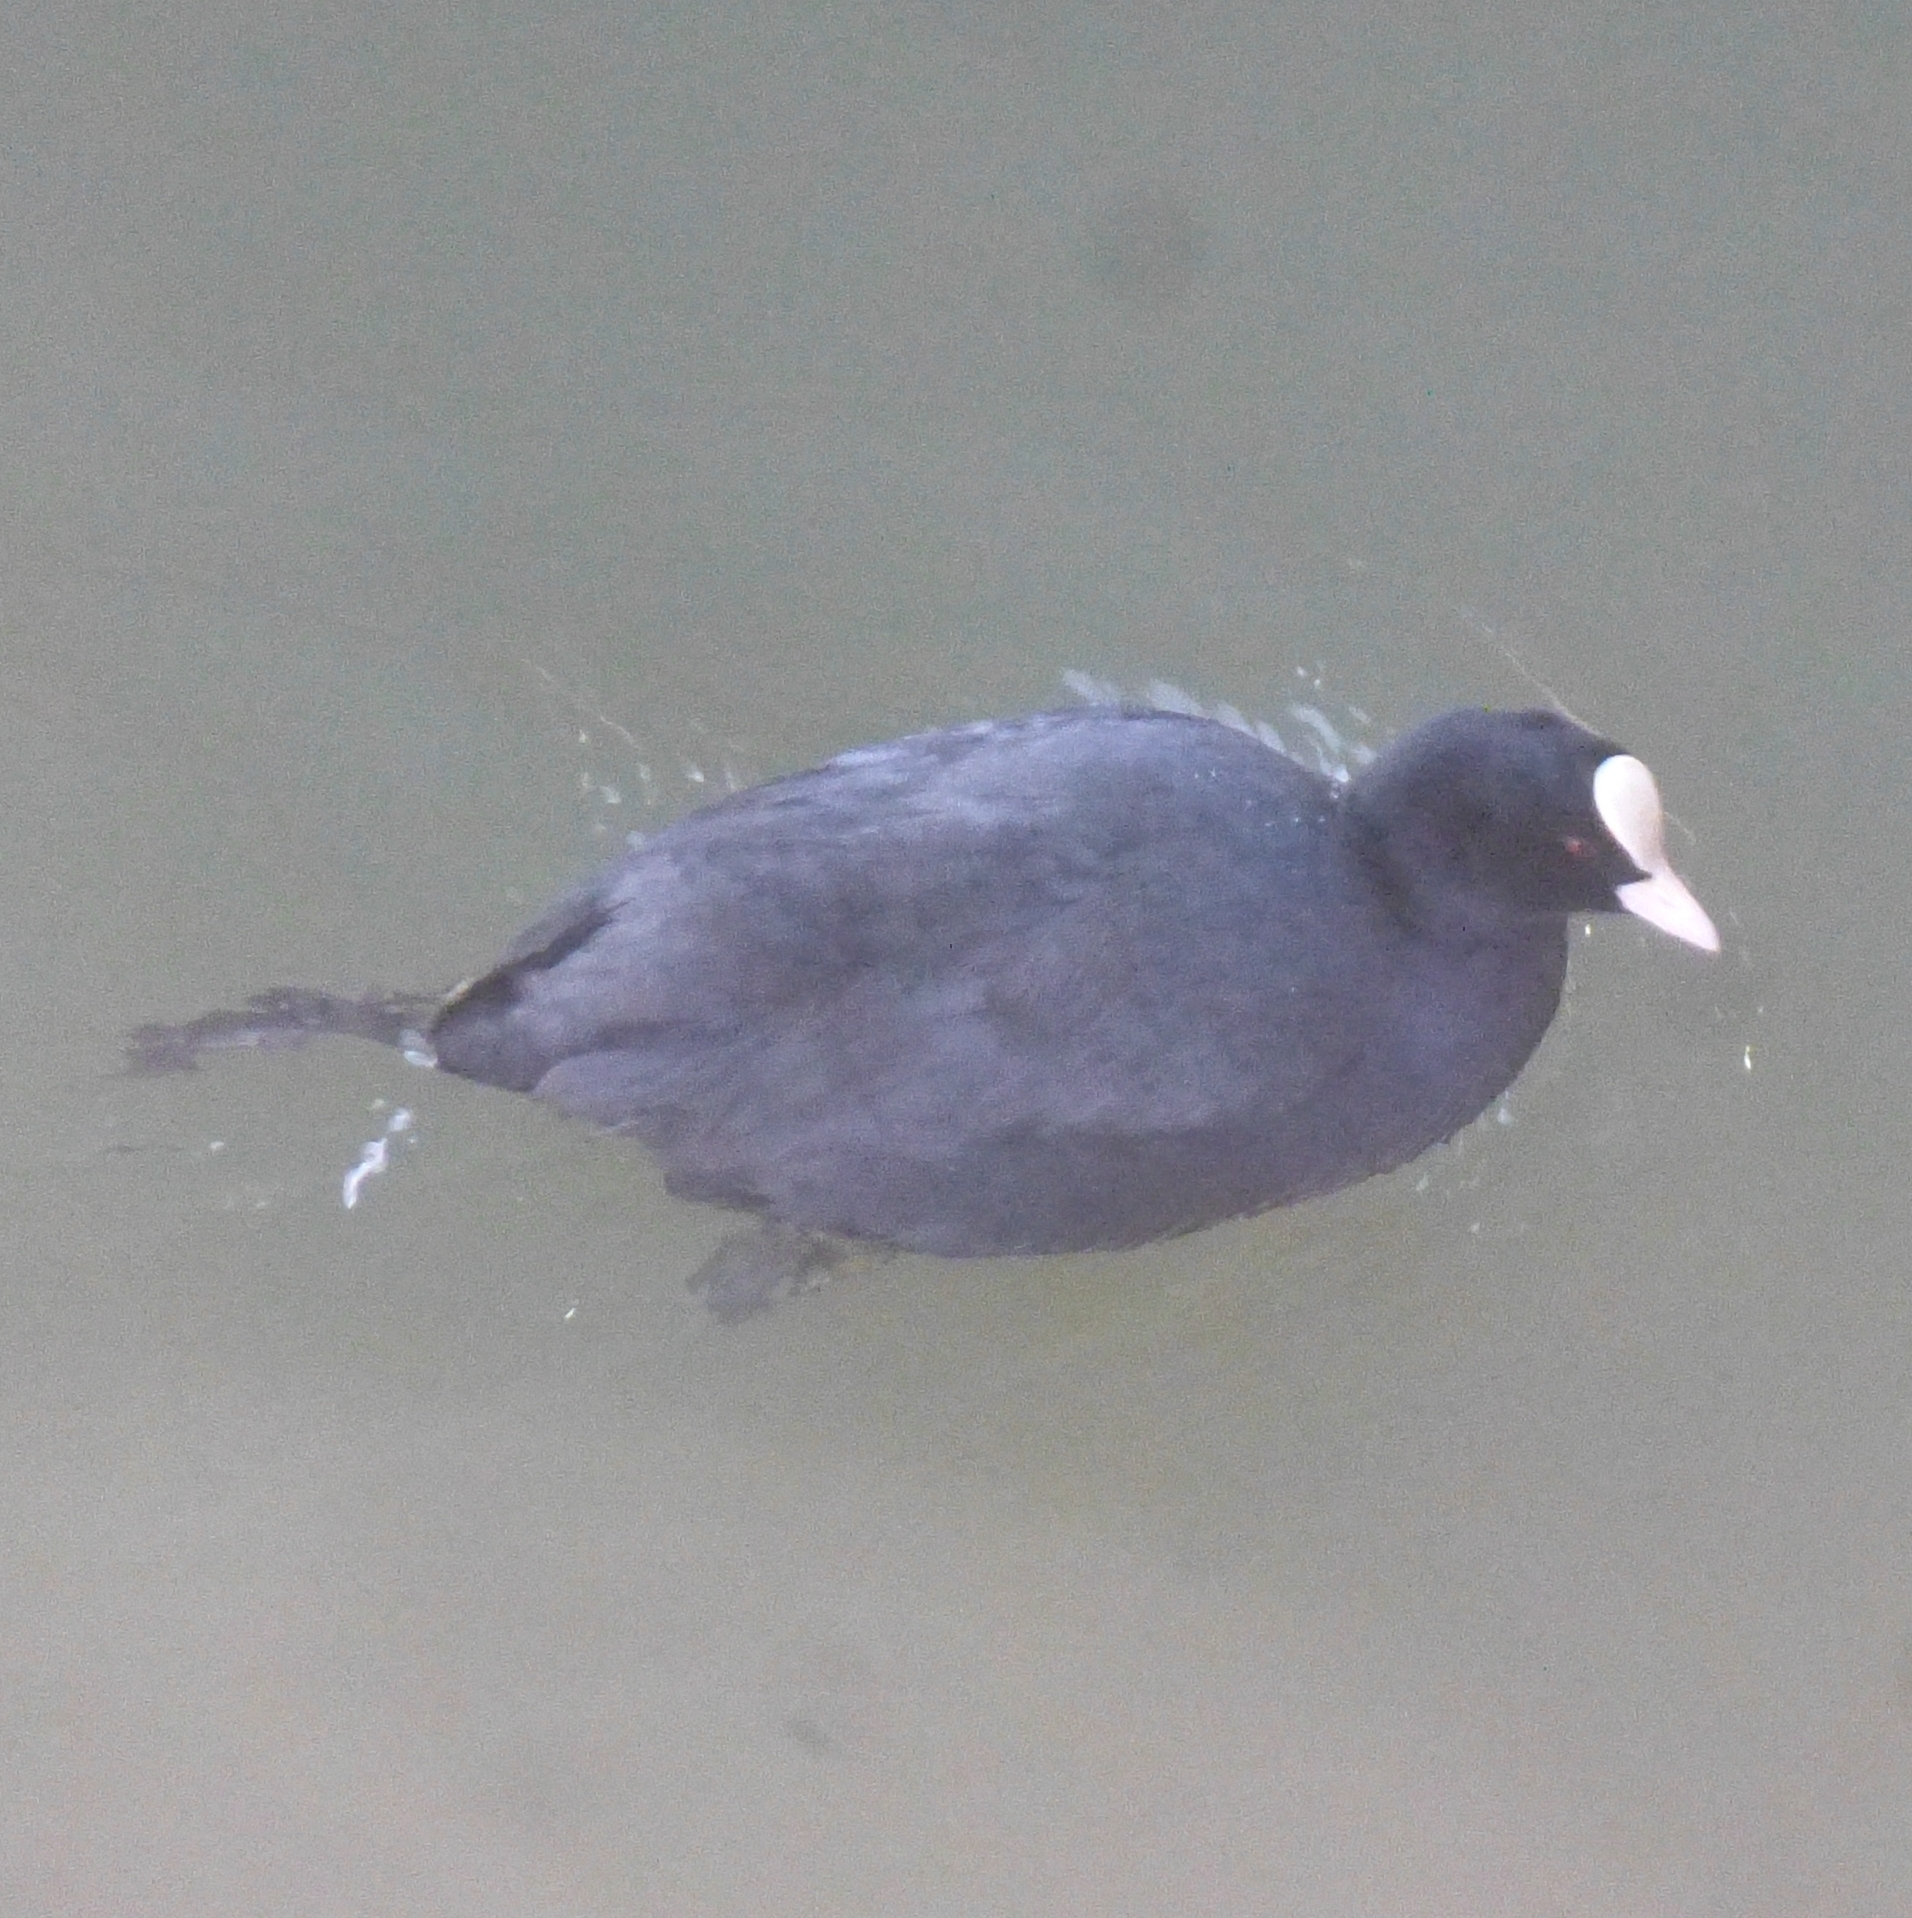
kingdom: Animalia
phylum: Chordata
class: Aves
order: Gruiformes
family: Rallidae
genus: Fulica
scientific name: Fulica atra
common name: Eurasian coot
